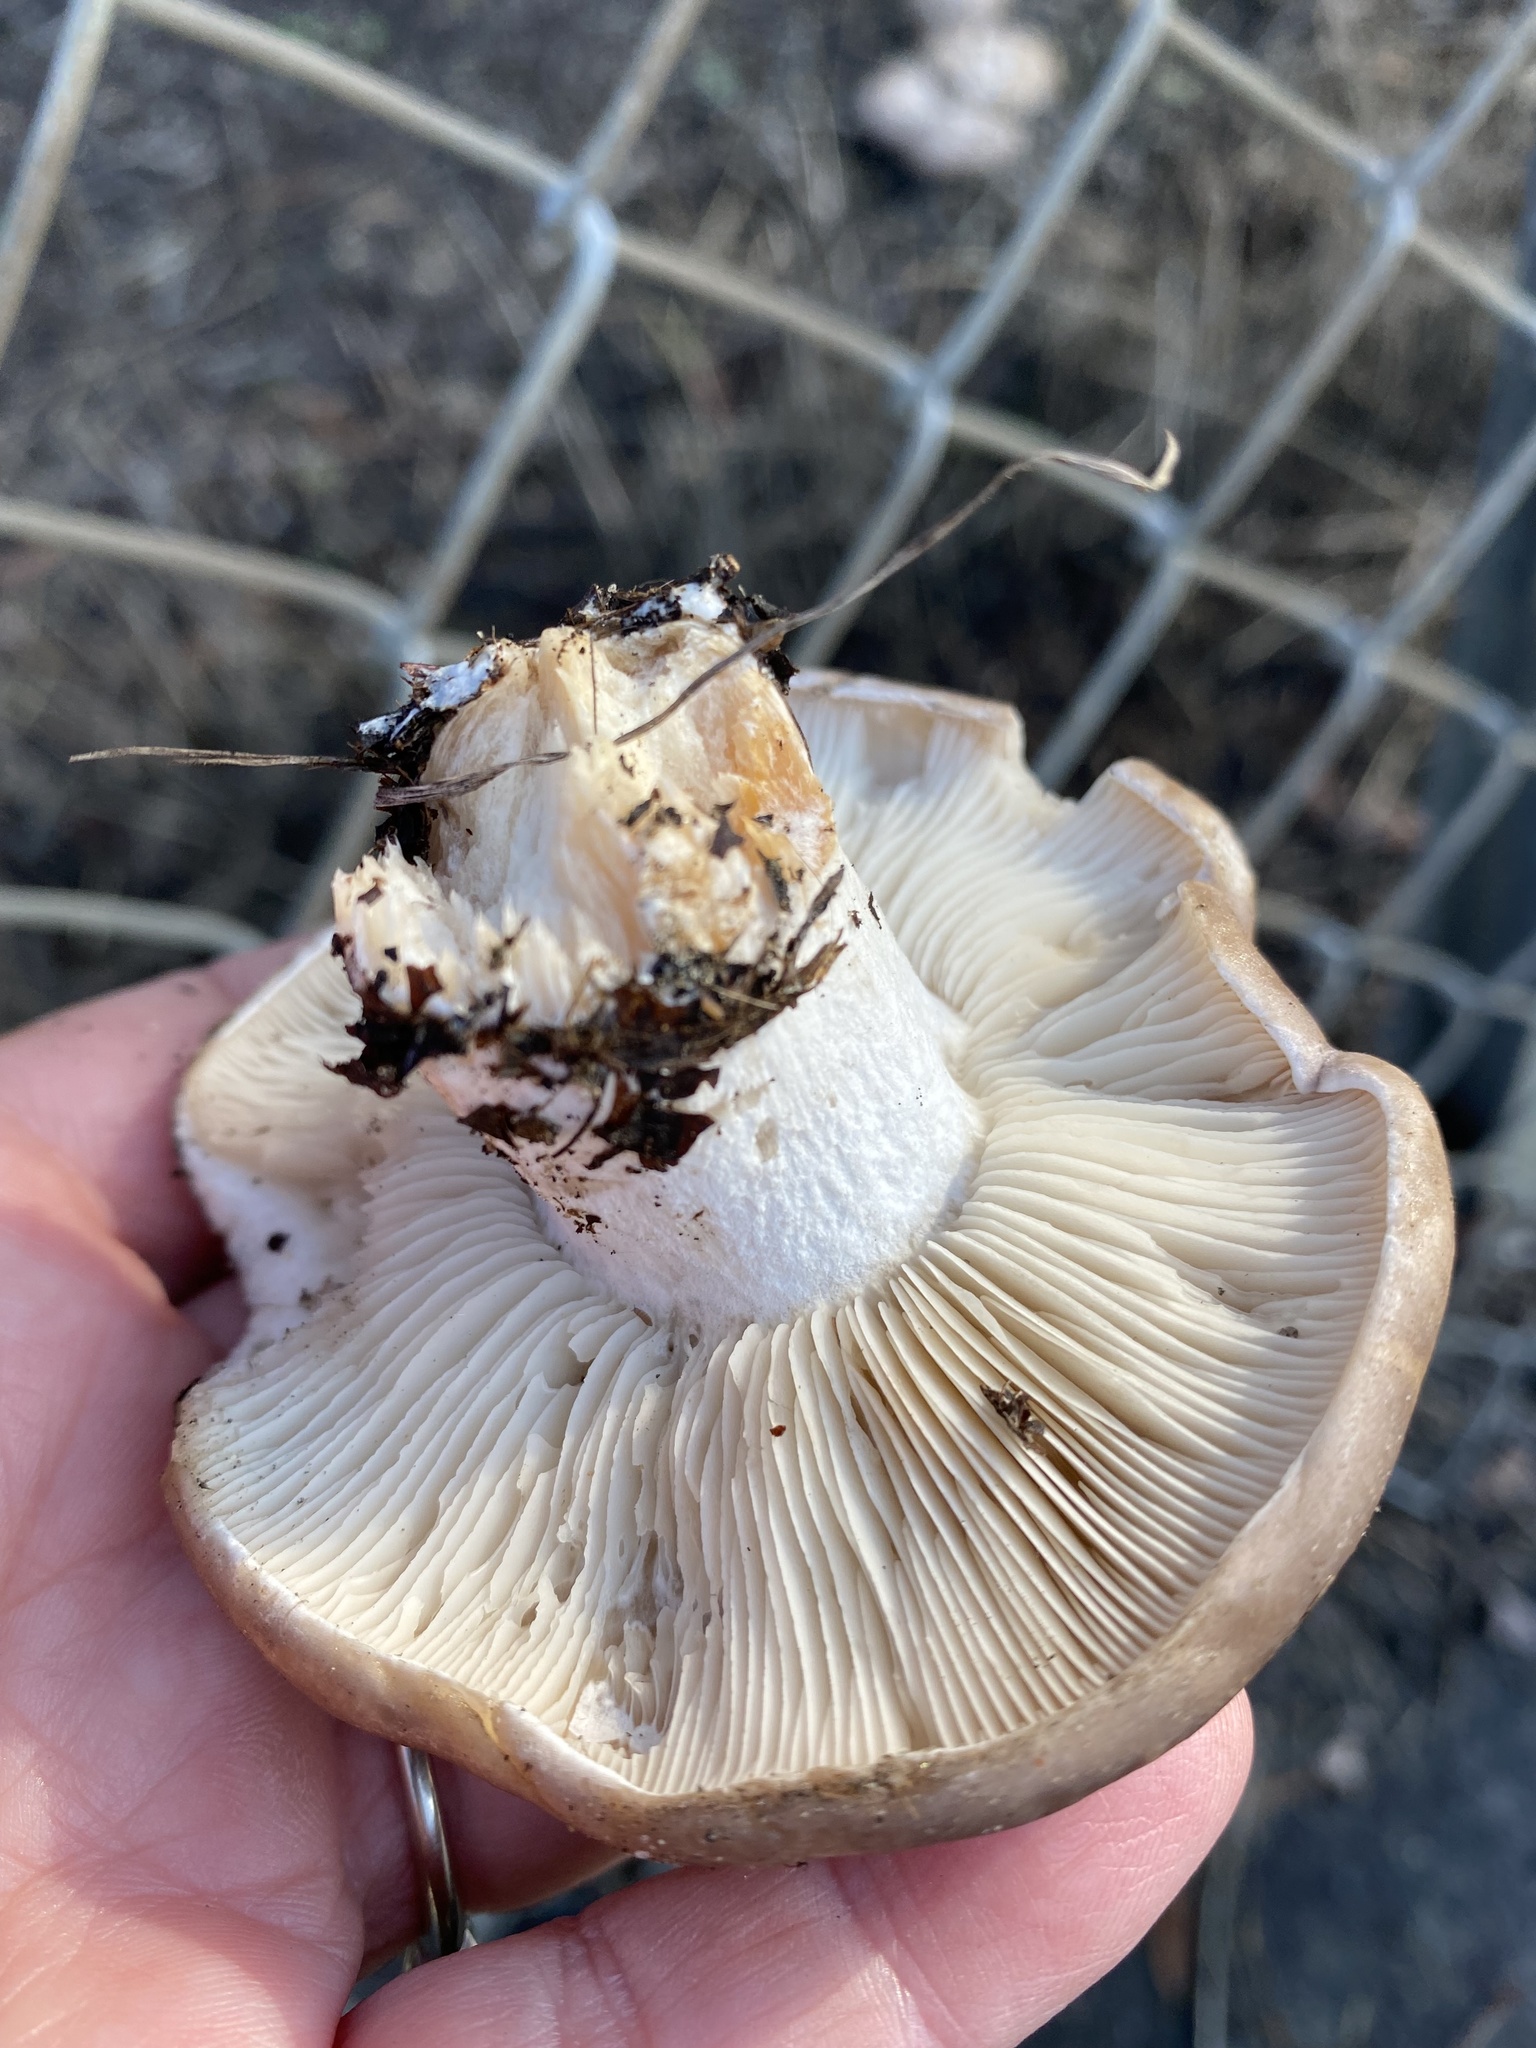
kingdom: Fungi
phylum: Basidiomycota
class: Agaricomycetes
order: Agaricales
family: Tricholomataceae
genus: Collybia
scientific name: Collybia
